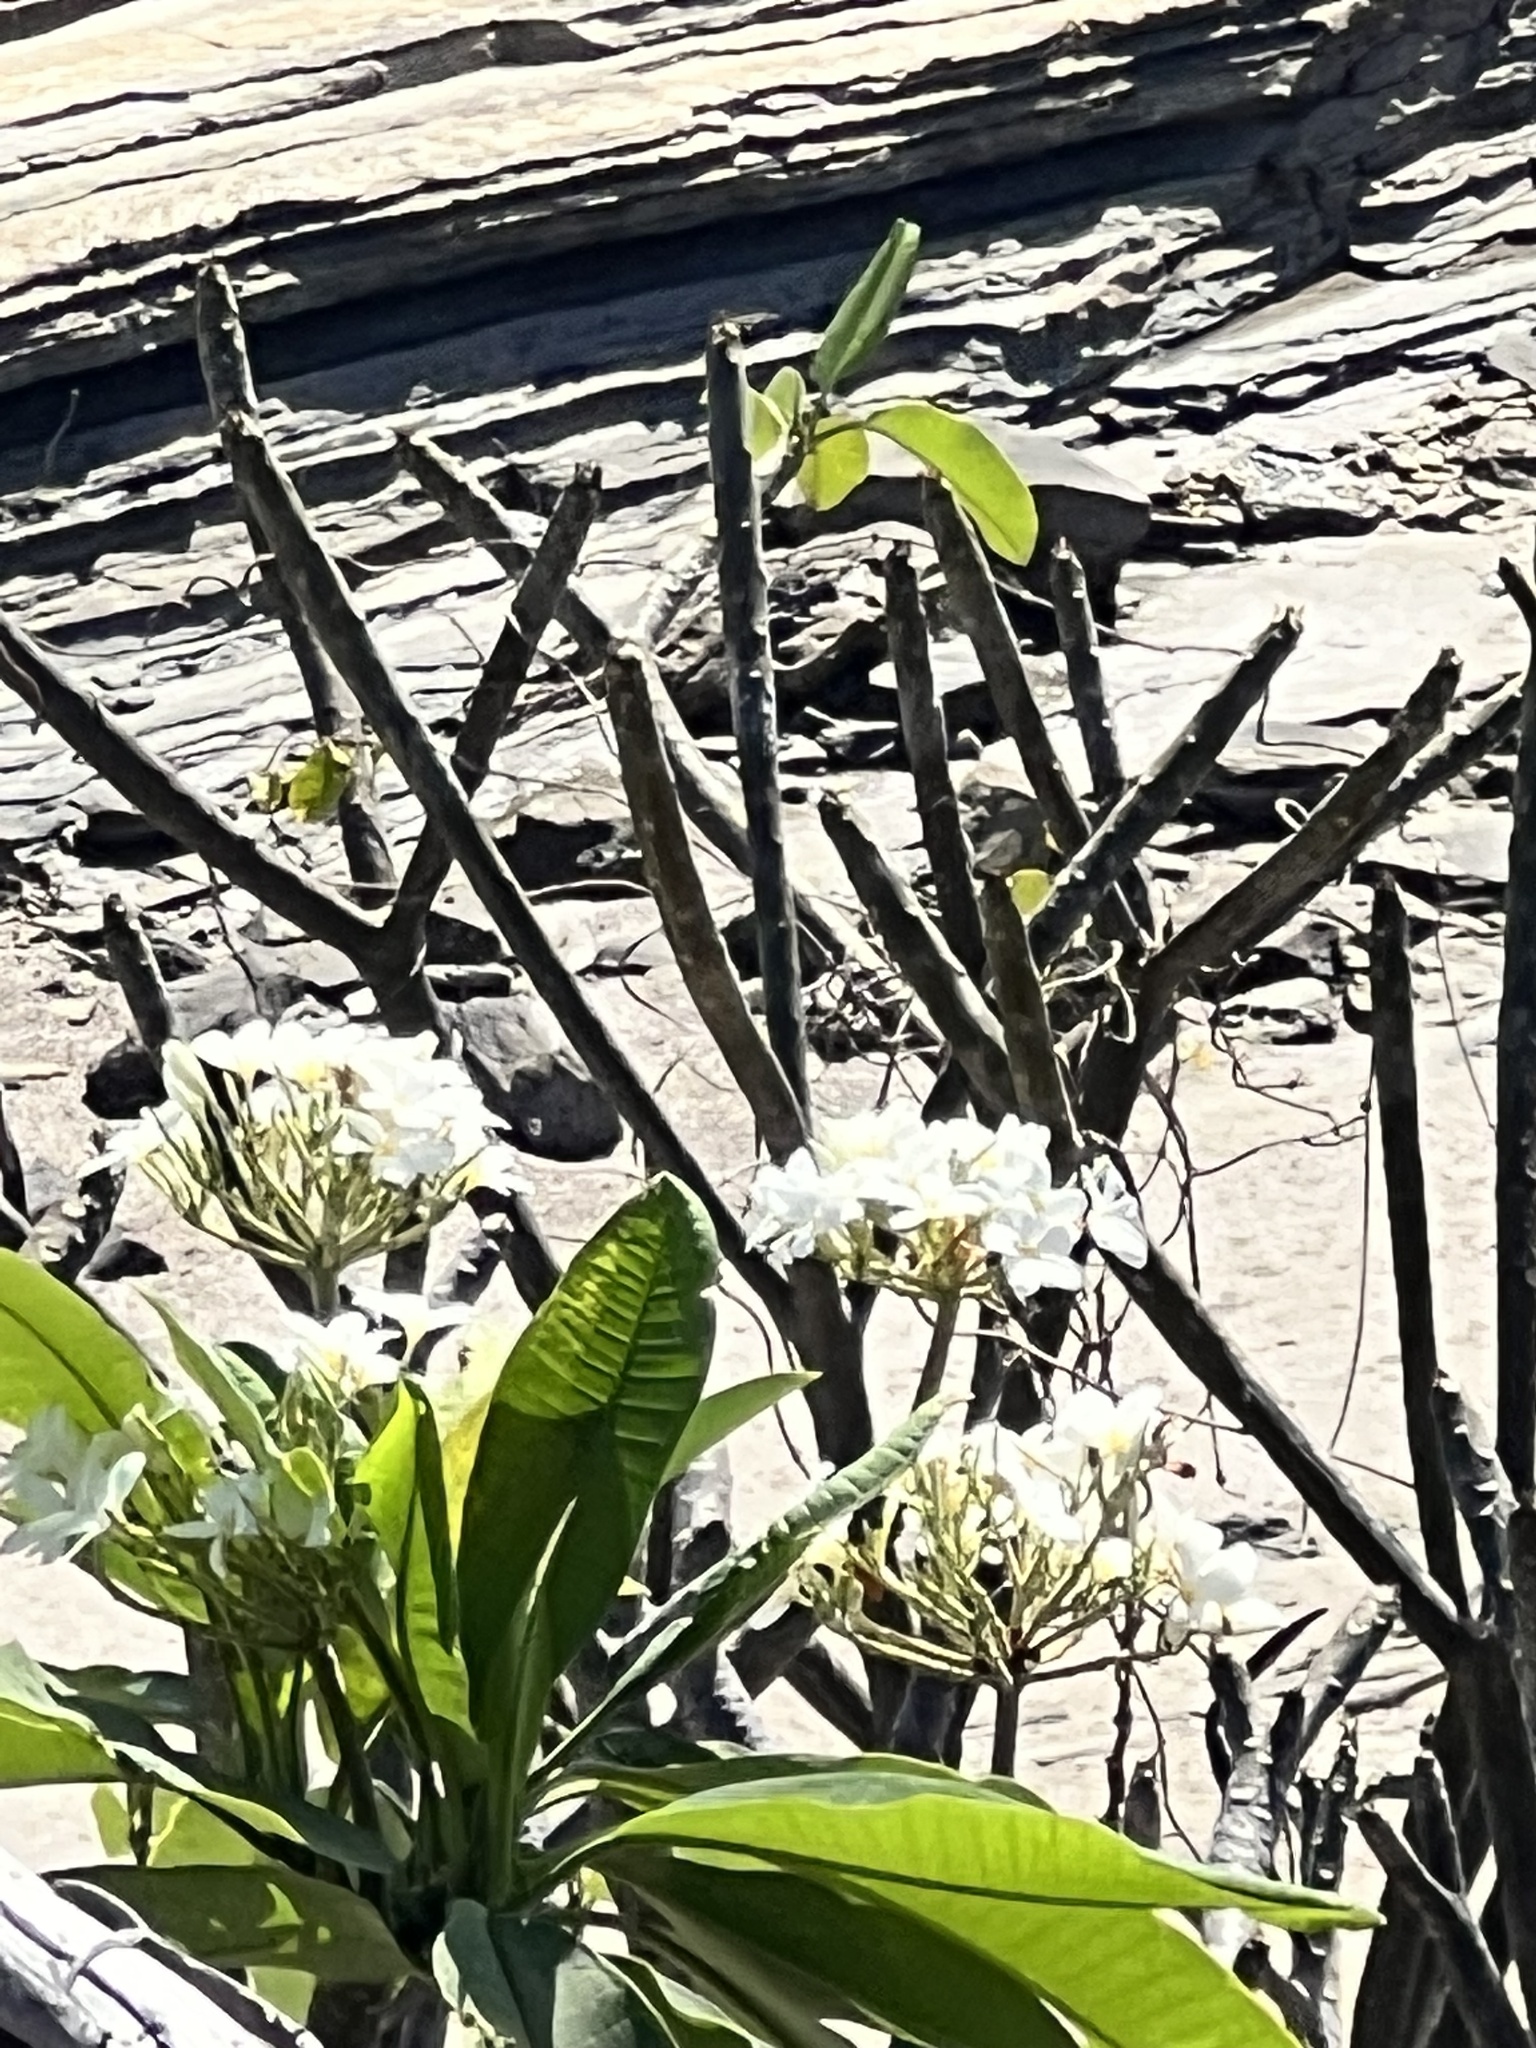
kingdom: Plantae
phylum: Tracheophyta
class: Magnoliopsida
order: Gentianales
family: Apocynaceae
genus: Plumeria
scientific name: Plumeria obtusa
